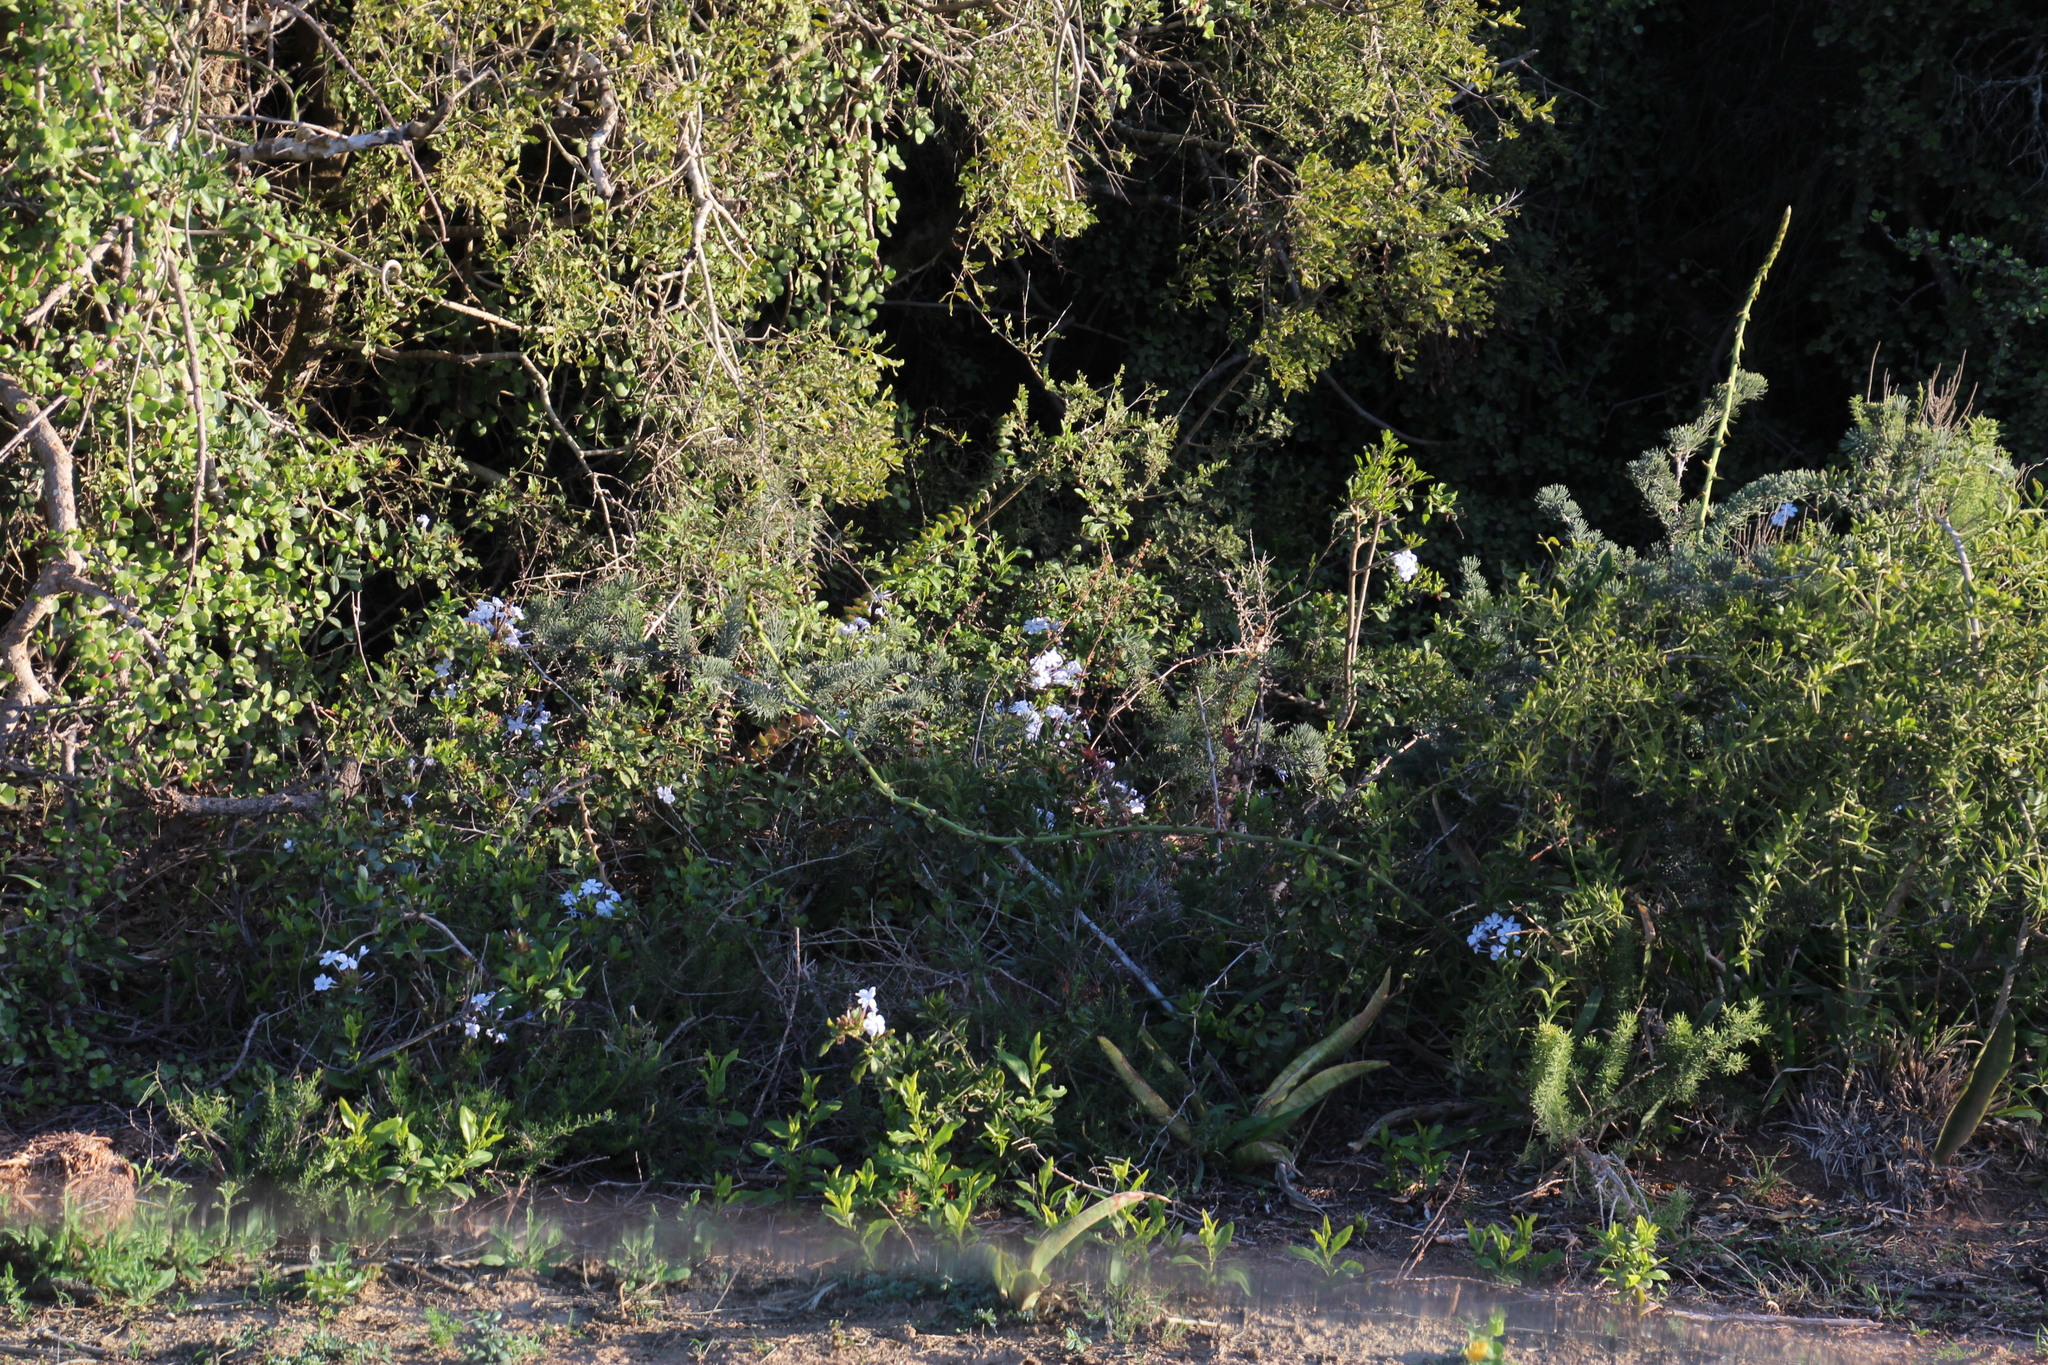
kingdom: Plantae
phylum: Tracheophyta
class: Magnoliopsida
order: Caryophyllales
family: Plumbaginaceae
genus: Plumbago
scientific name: Plumbago auriculata
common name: Cape leadwort
